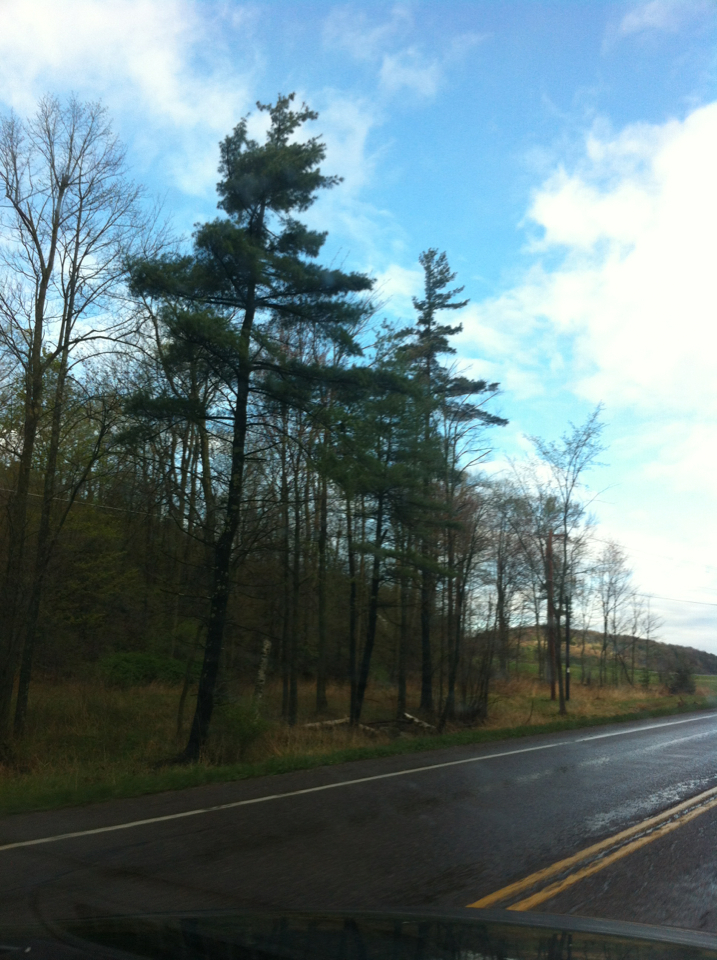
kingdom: Plantae
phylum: Tracheophyta
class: Pinopsida
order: Pinales
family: Pinaceae
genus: Pinus
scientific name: Pinus strobus
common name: Weymouth pine
